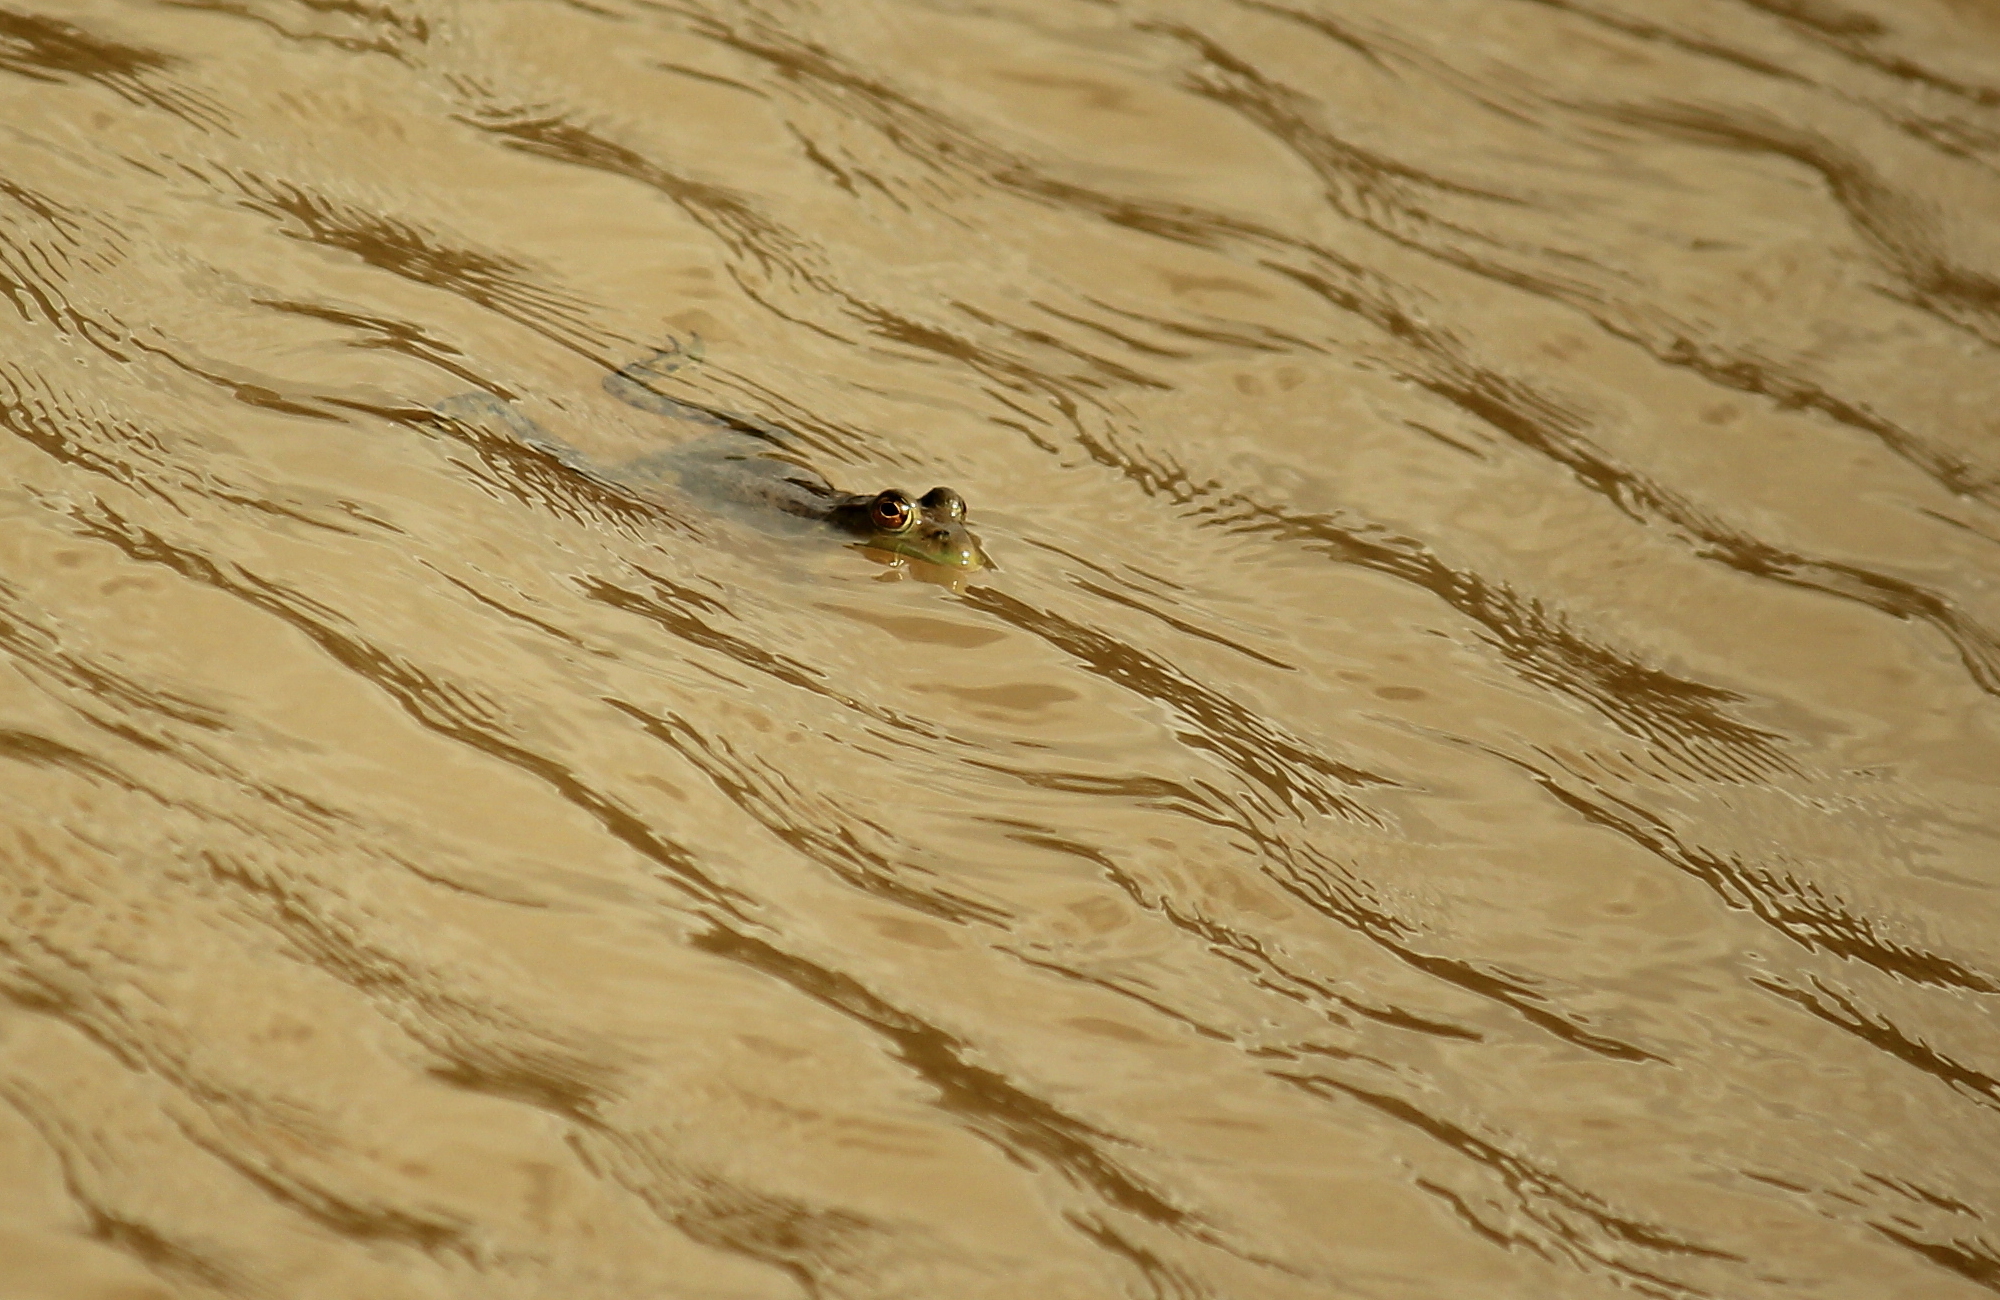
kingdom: Animalia
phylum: Chordata
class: Amphibia
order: Anura
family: Ranidae
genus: Lithobates
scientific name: Lithobates catesbeianus
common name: American bullfrog
